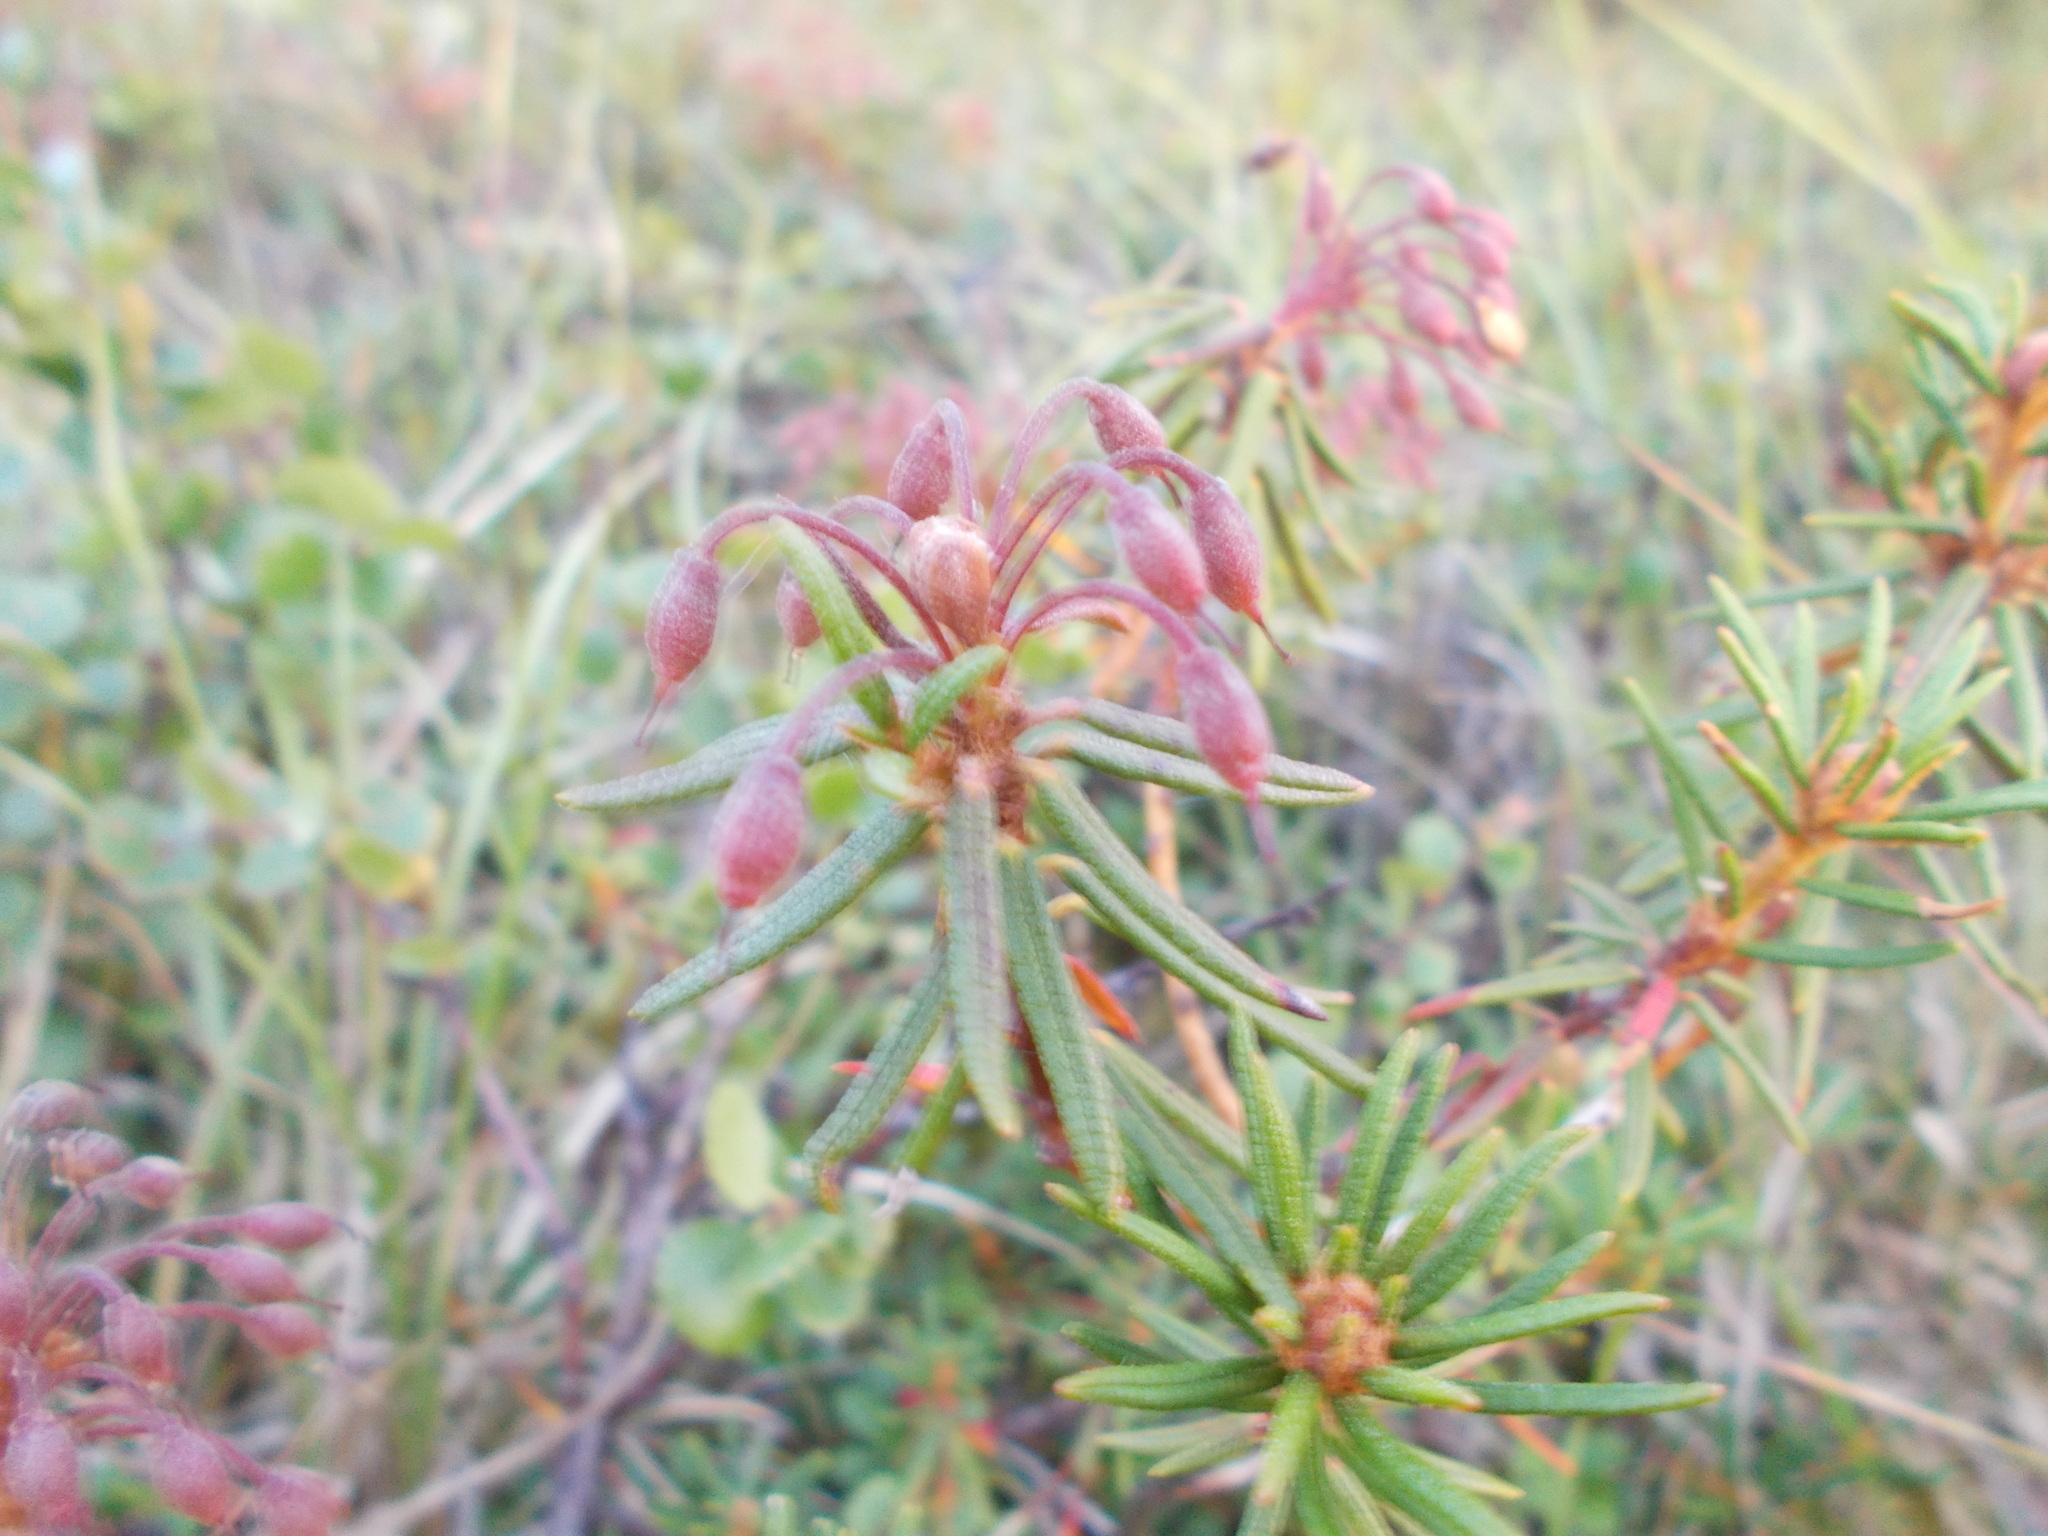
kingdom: Plantae
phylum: Tracheophyta
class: Magnoliopsida
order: Ericales
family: Ericaceae
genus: Rhododendron
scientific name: Rhododendron tomentosum
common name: Marsh labrador tea
